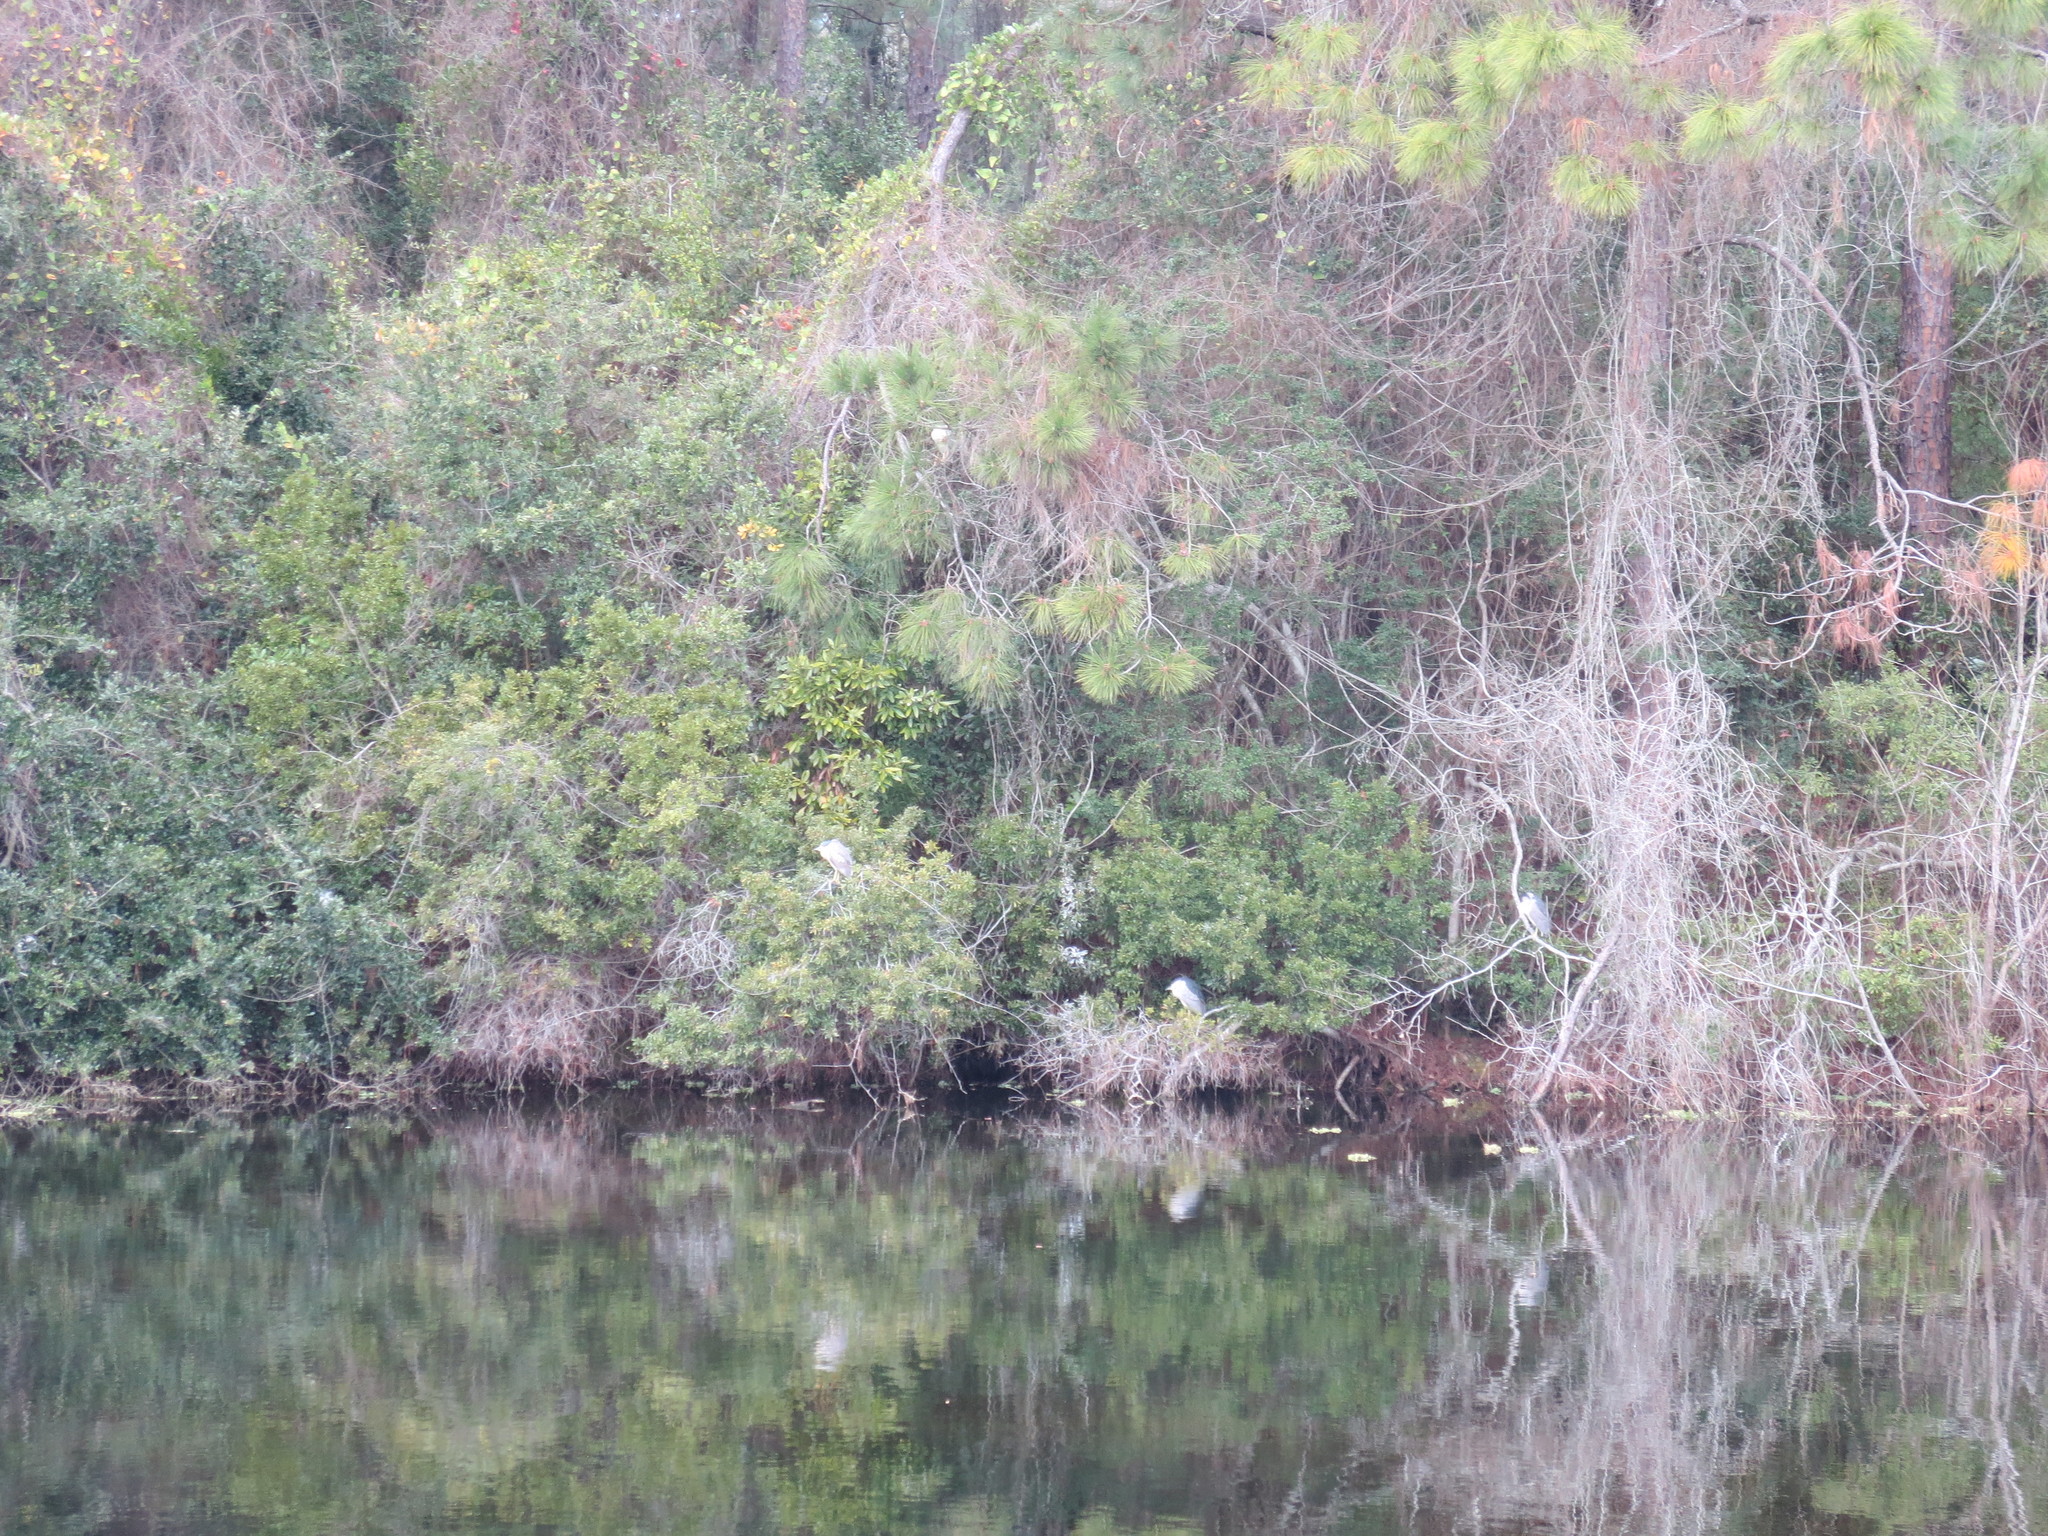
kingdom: Animalia
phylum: Chordata
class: Aves
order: Pelecaniformes
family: Ardeidae
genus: Nycticorax
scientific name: Nycticorax nycticorax
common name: Black-crowned night heron
